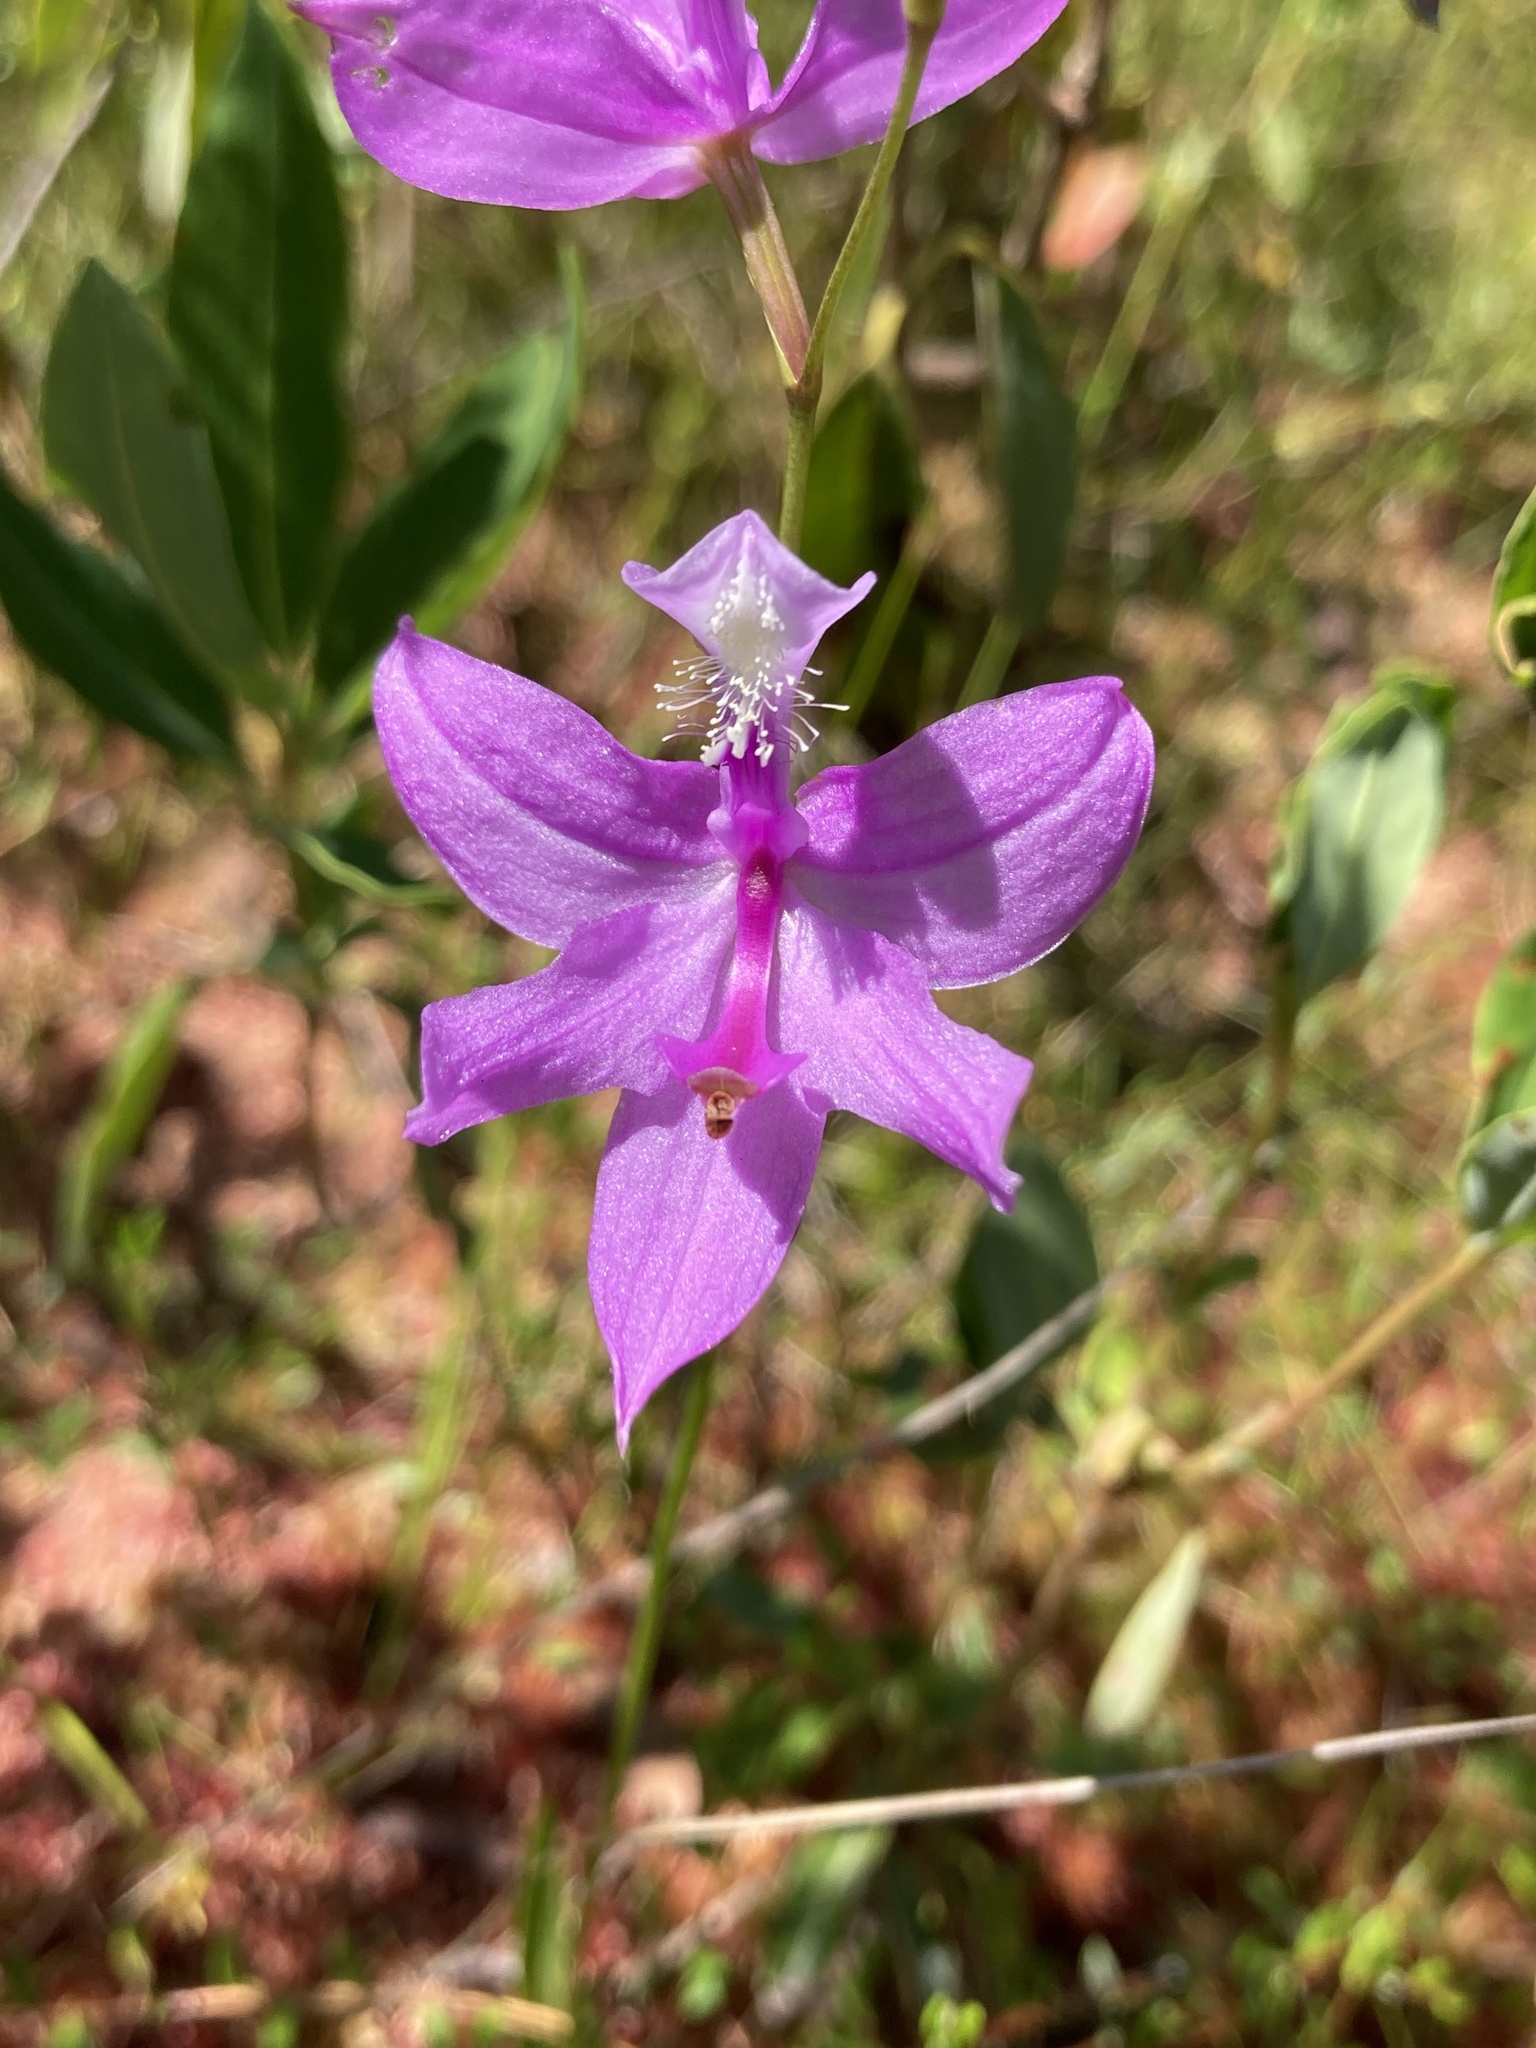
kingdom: Plantae
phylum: Tracheophyta
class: Liliopsida
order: Asparagales
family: Orchidaceae
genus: Calopogon
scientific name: Calopogon tuberosus
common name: Grass-pink
